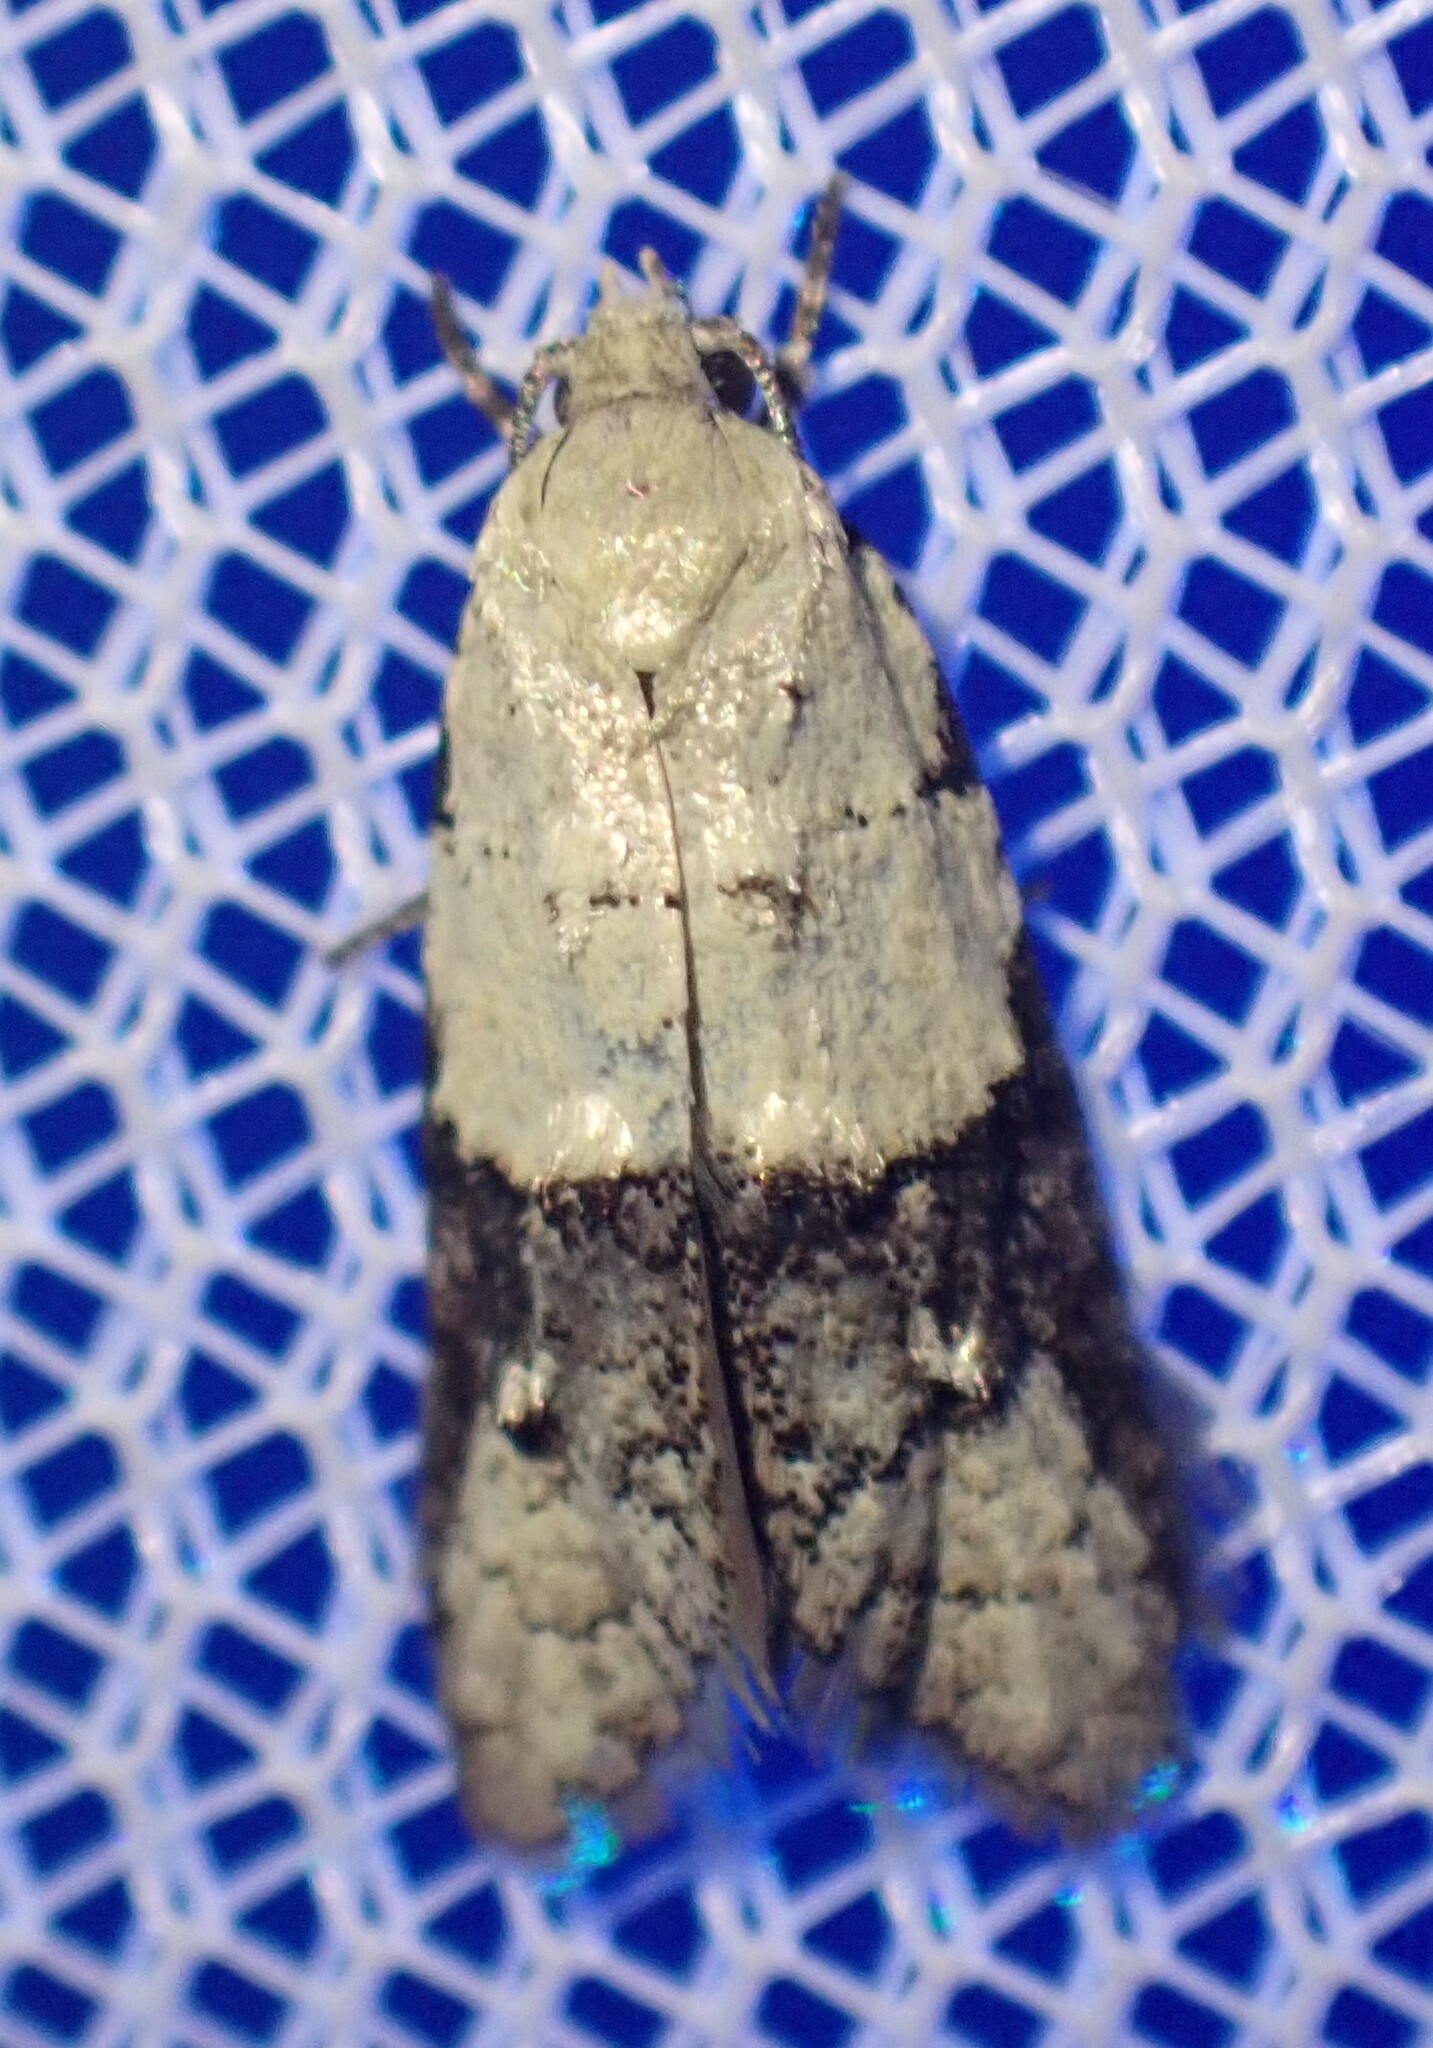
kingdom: Animalia
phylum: Arthropoda
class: Insecta
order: Lepidoptera
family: Tortricidae
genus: Tracholena
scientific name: Tracholena sulfurosa
